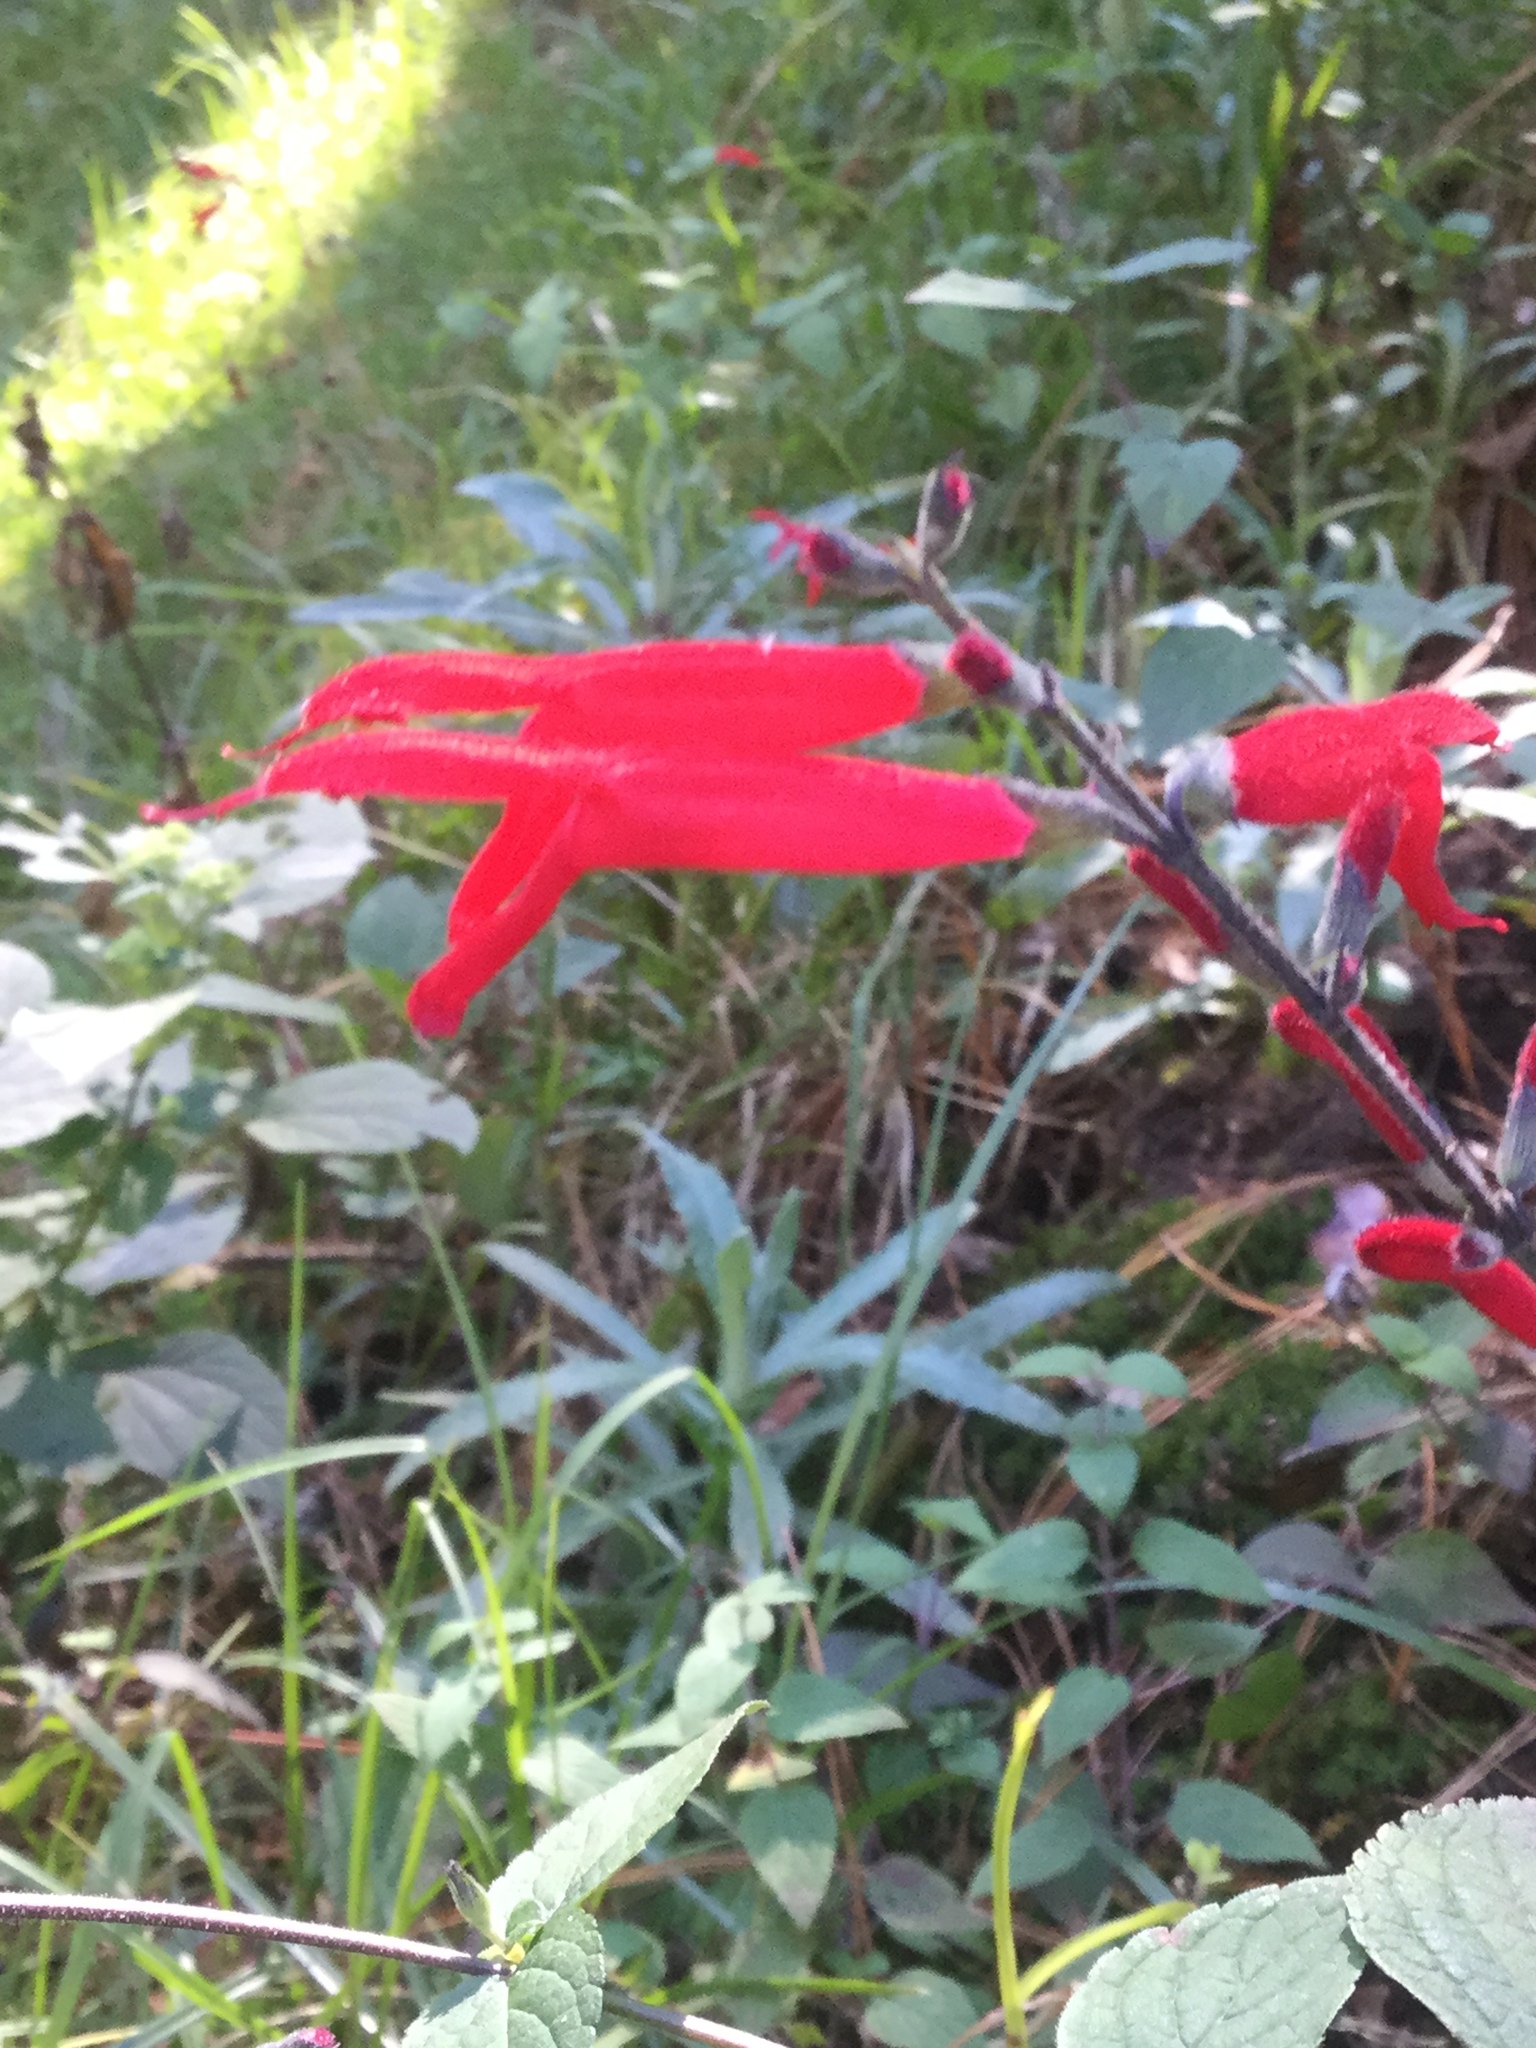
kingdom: Plantae
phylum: Tracheophyta
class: Magnoliopsida
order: Lamiales
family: Lamiaceae
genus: Salvia
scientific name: Salvia elegans
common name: Pineapple sage
